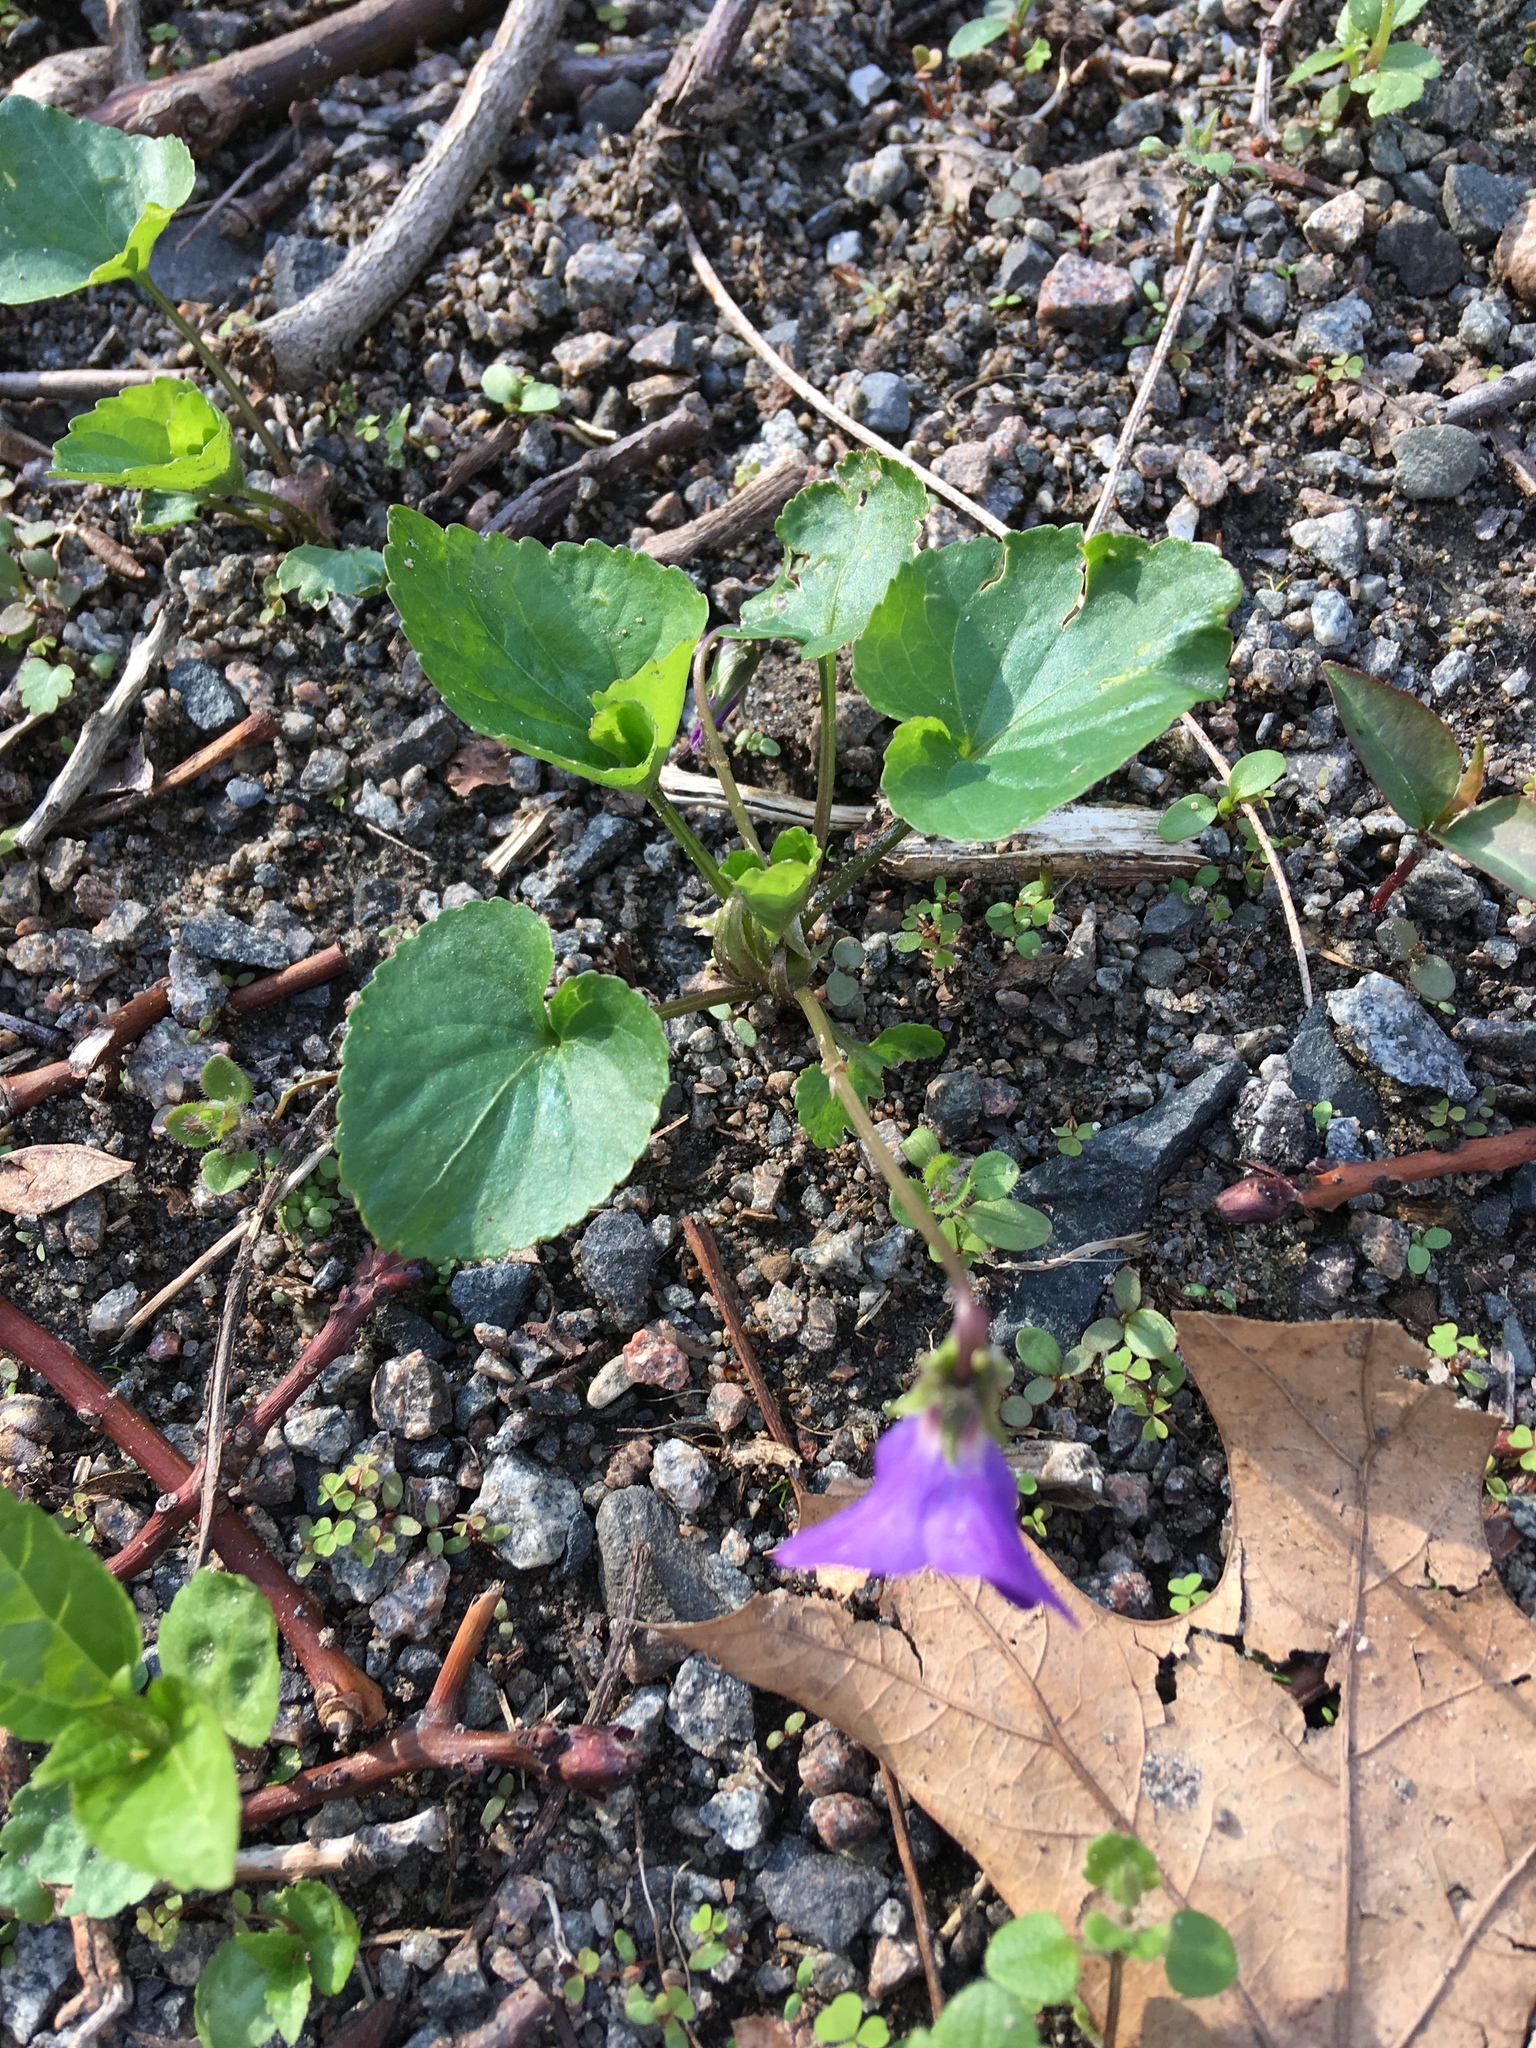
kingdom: Plantae
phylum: Tracheophyta
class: Magnoliopsida
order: Malpighiales
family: Violaceae
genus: Viola
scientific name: Viola sororia
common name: Dooryard violet
